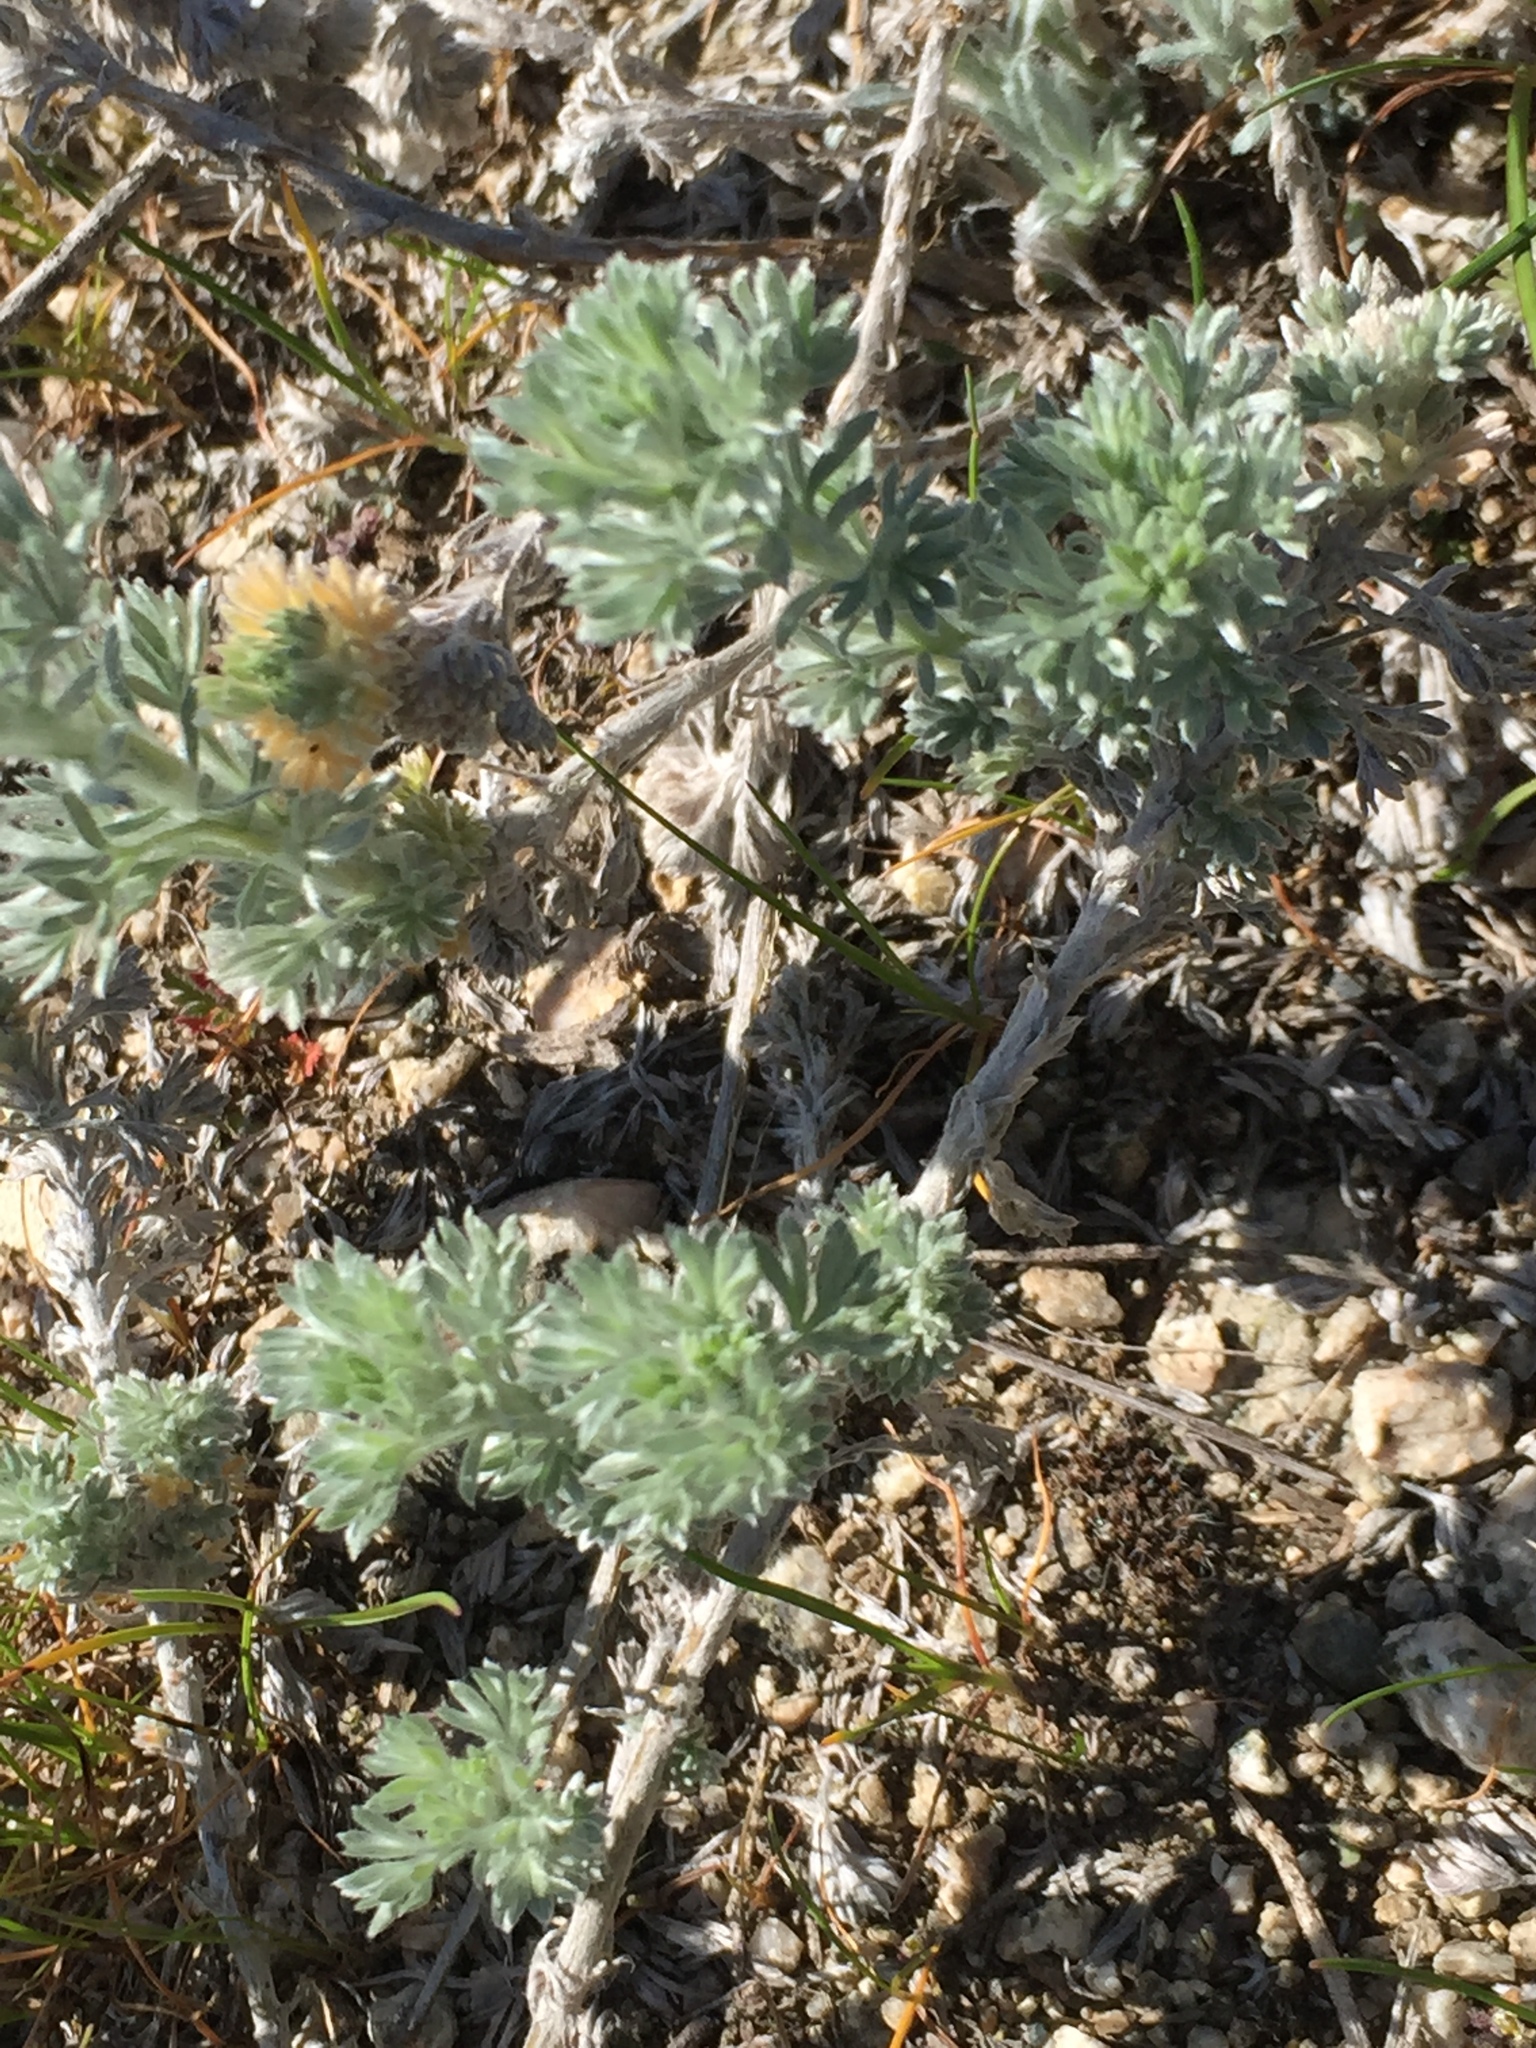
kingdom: Plantae
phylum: Tracheophyta
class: Magnoliopsida
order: Asterales
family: Asteraceae
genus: Artemisia
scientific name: Artemisia frigida
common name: Prairie sagewort
